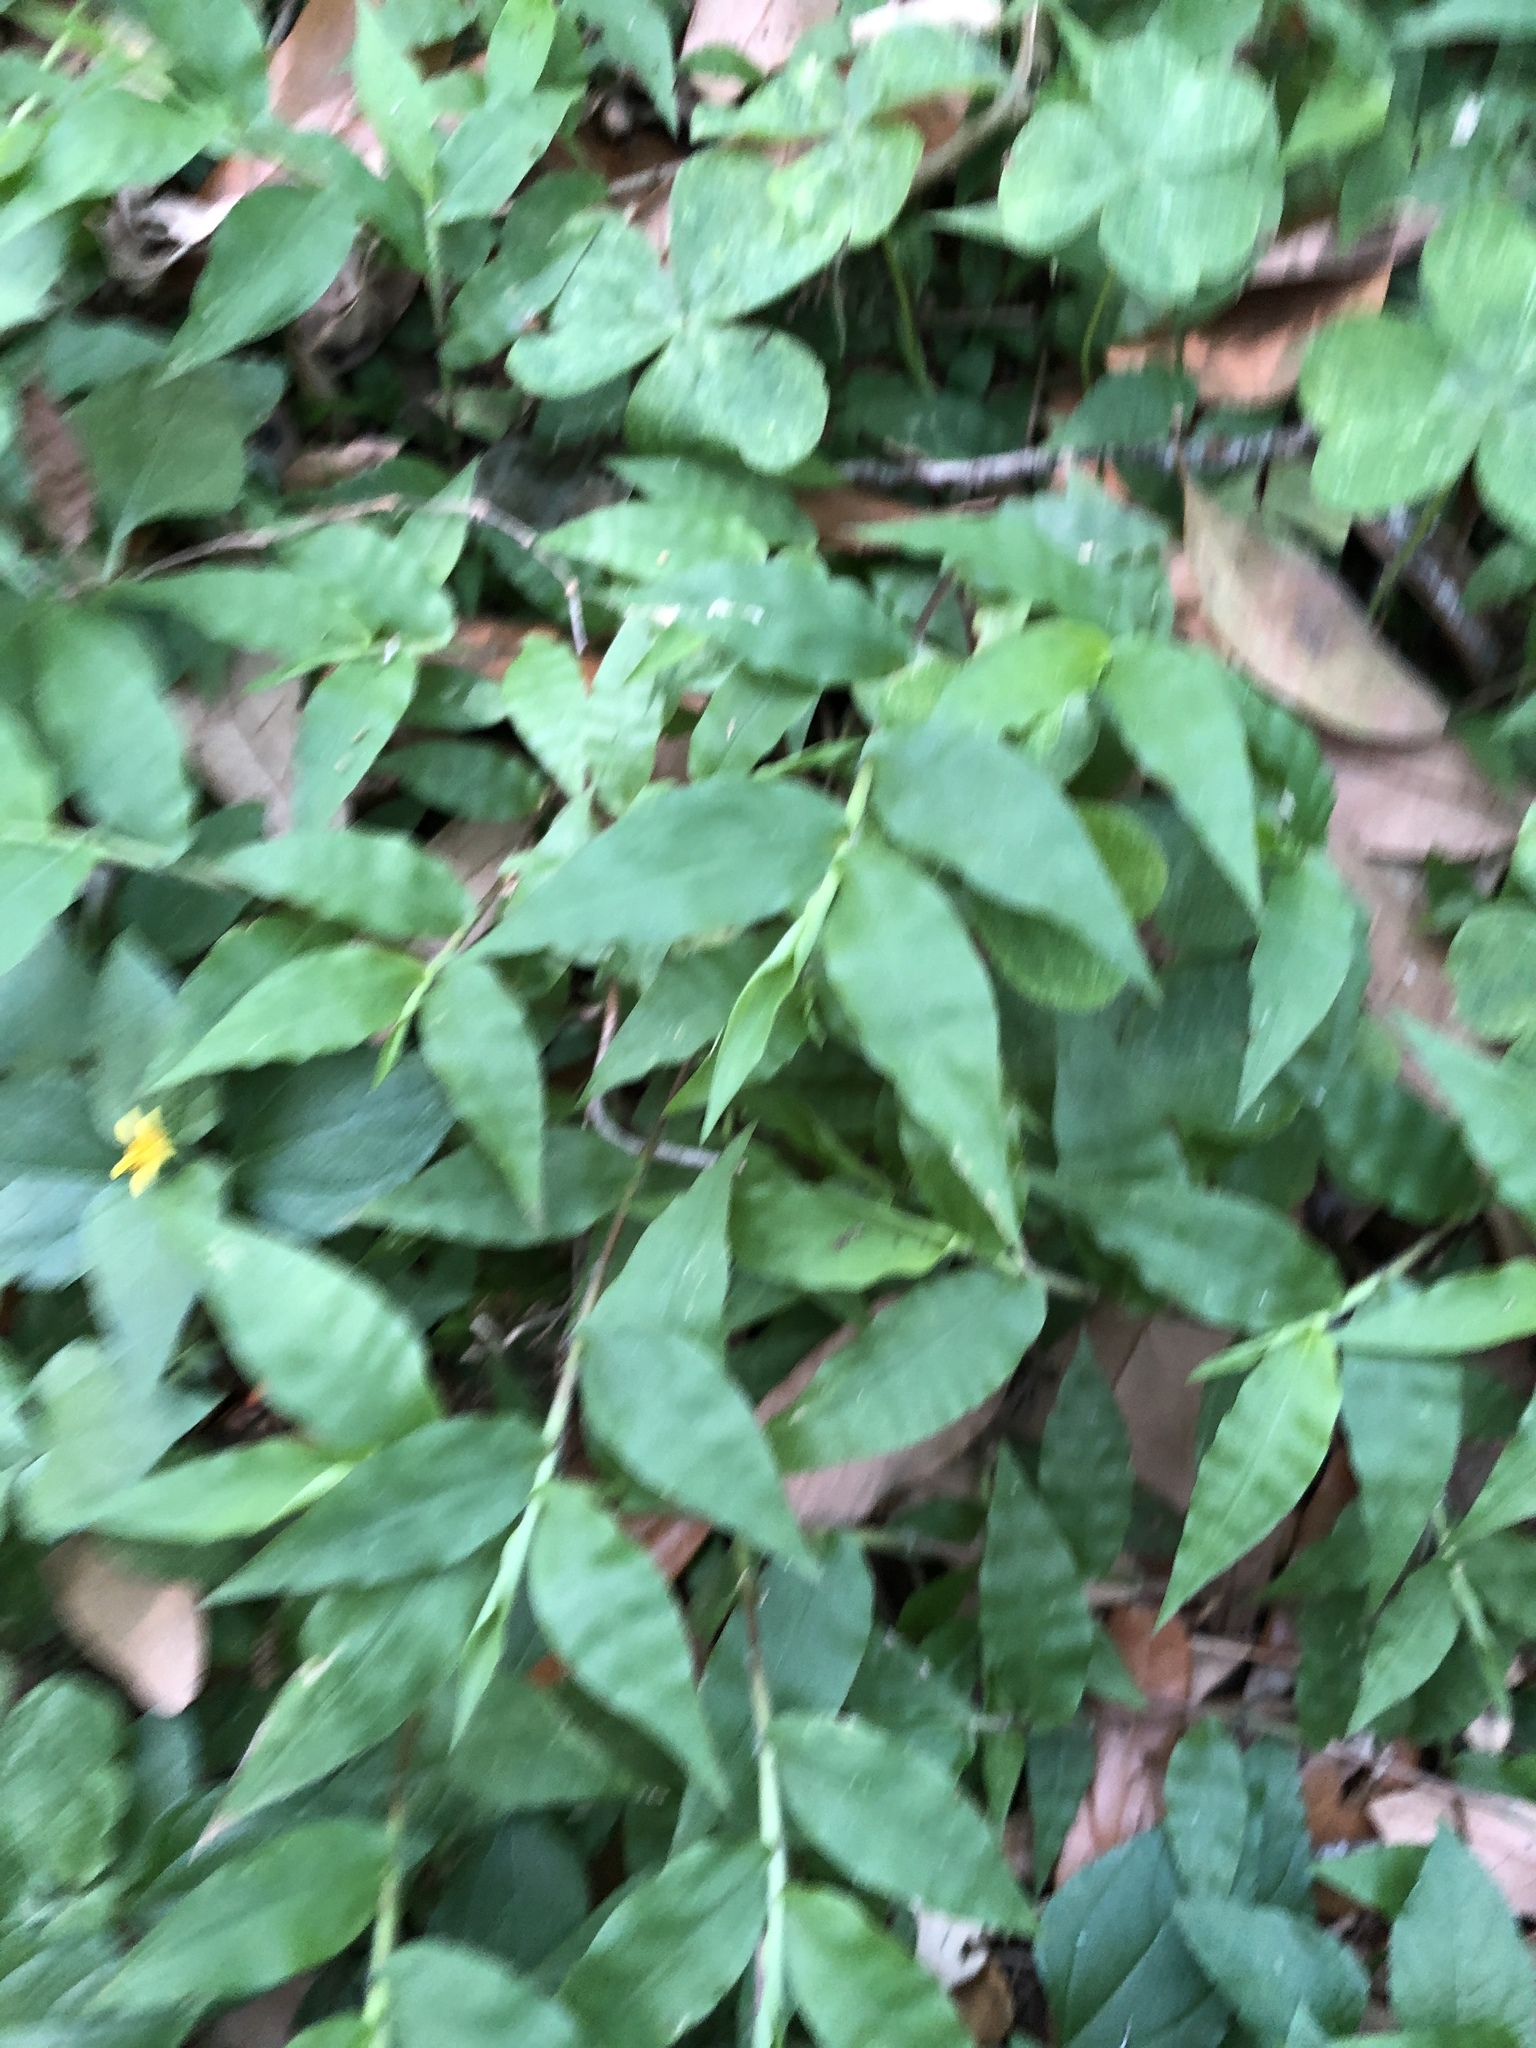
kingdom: Plantae
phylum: Tracheophyta
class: Liliopsida
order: Poales
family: Poaceae
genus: Oplismenus
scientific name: Oplismenus hirtellus
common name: Basketgrass
